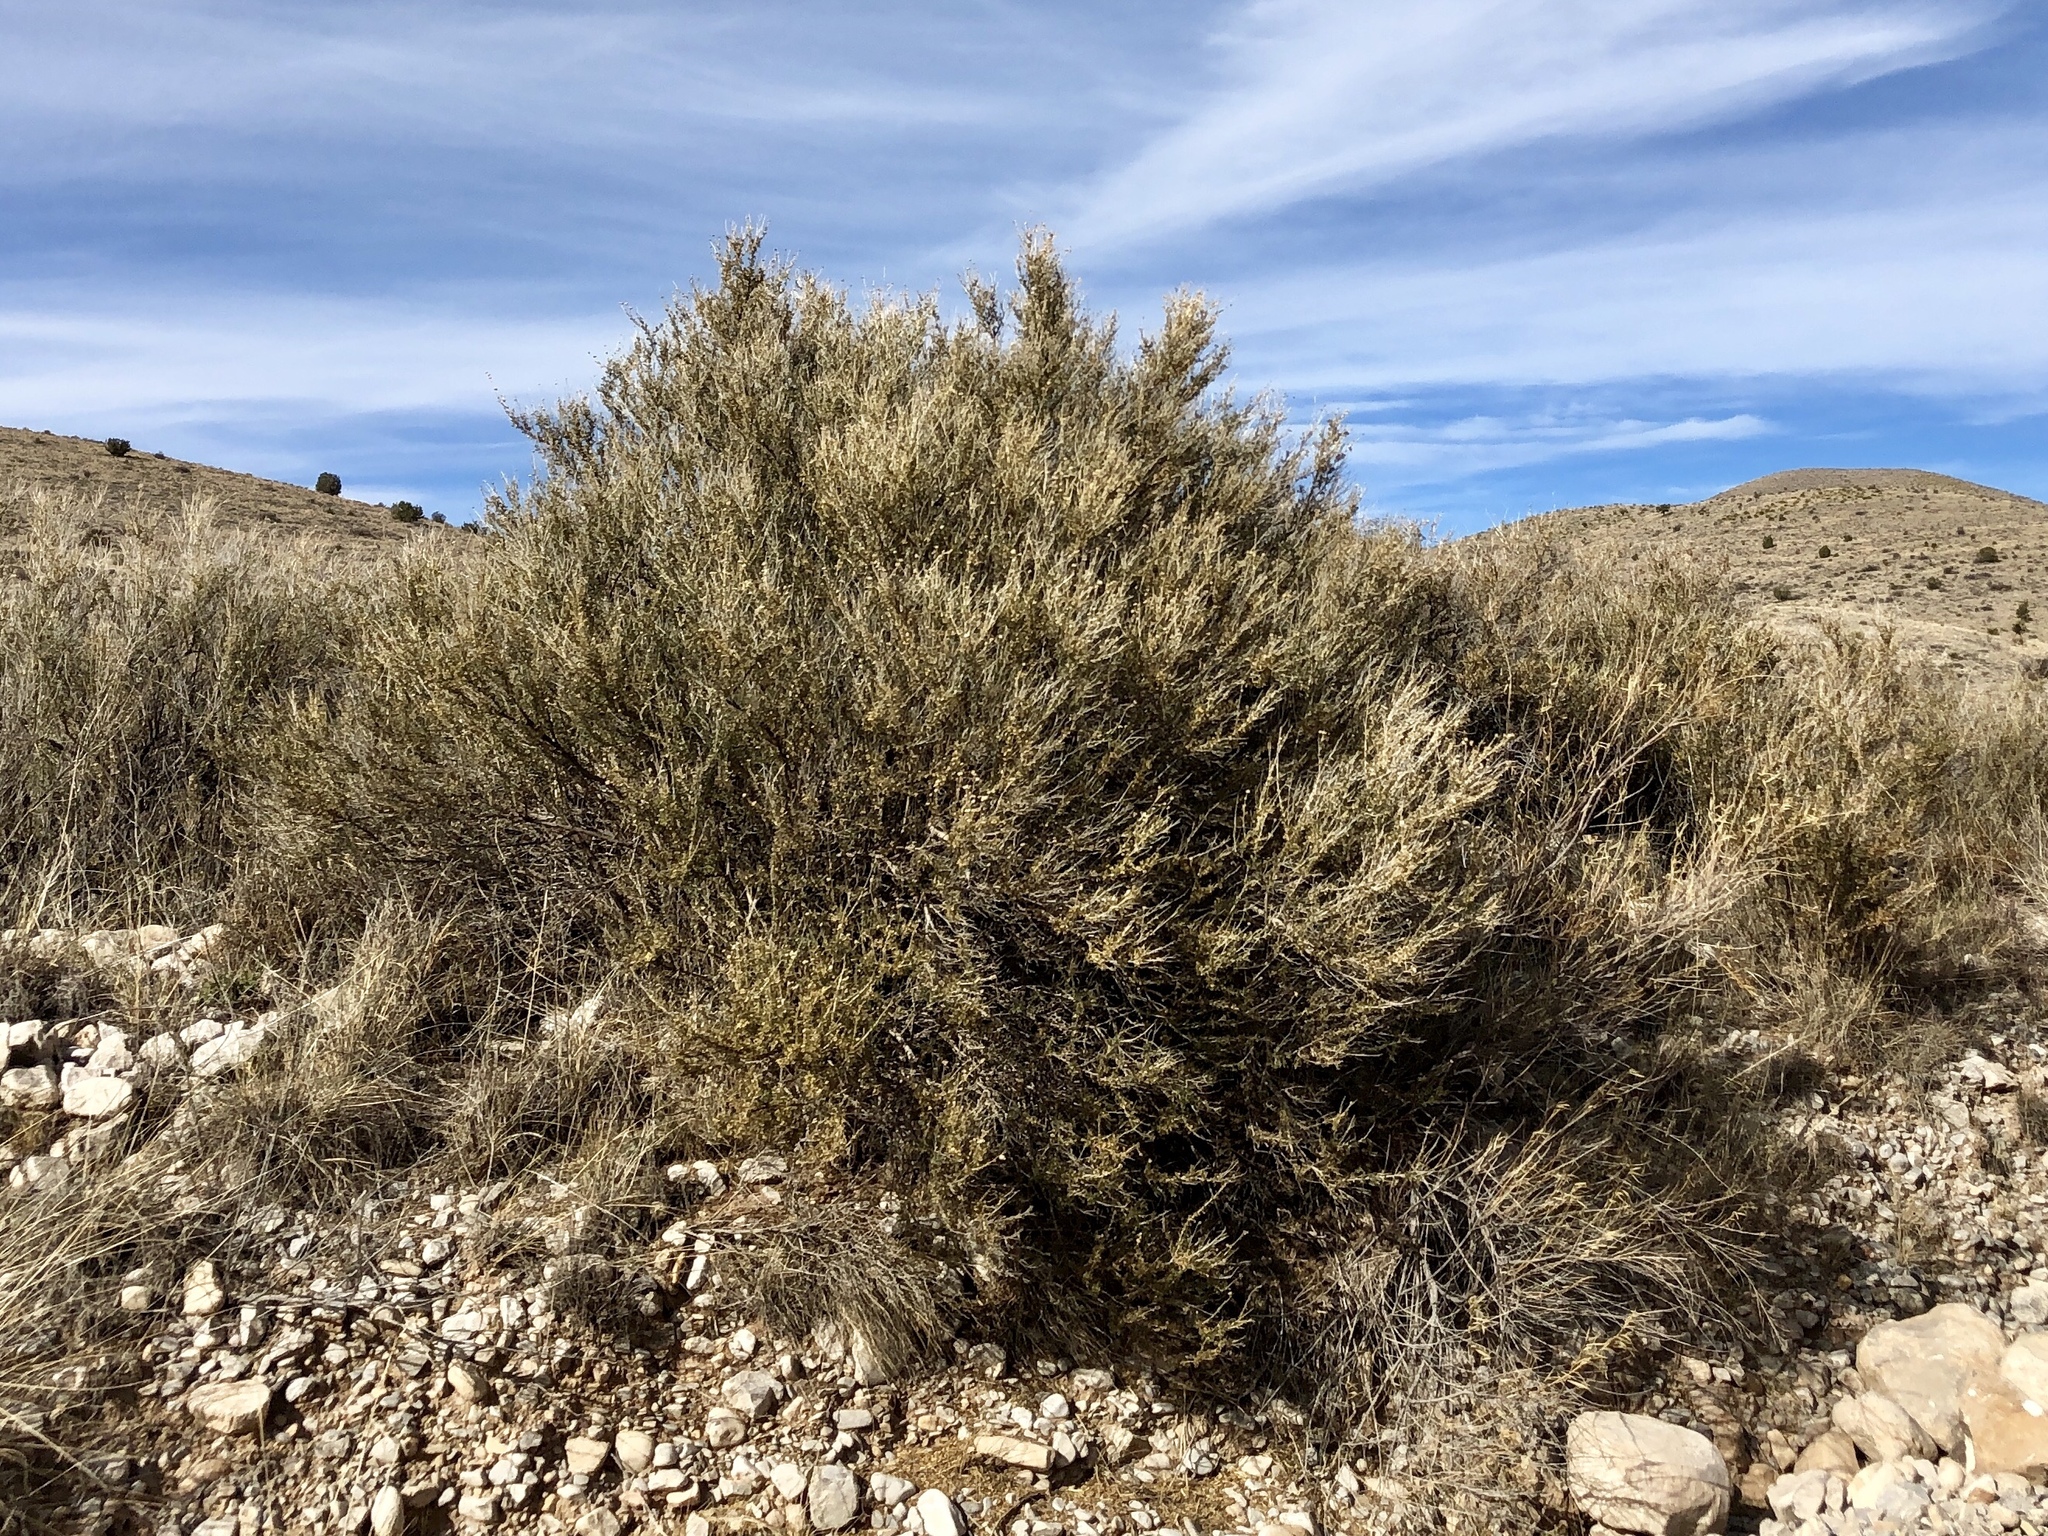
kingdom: Plantae
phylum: Tracheophyta
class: Magnoliopsida
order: Rosales
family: Rosaceae
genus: Fallugia
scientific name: Fallugia paradoxa
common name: Apache-plume
